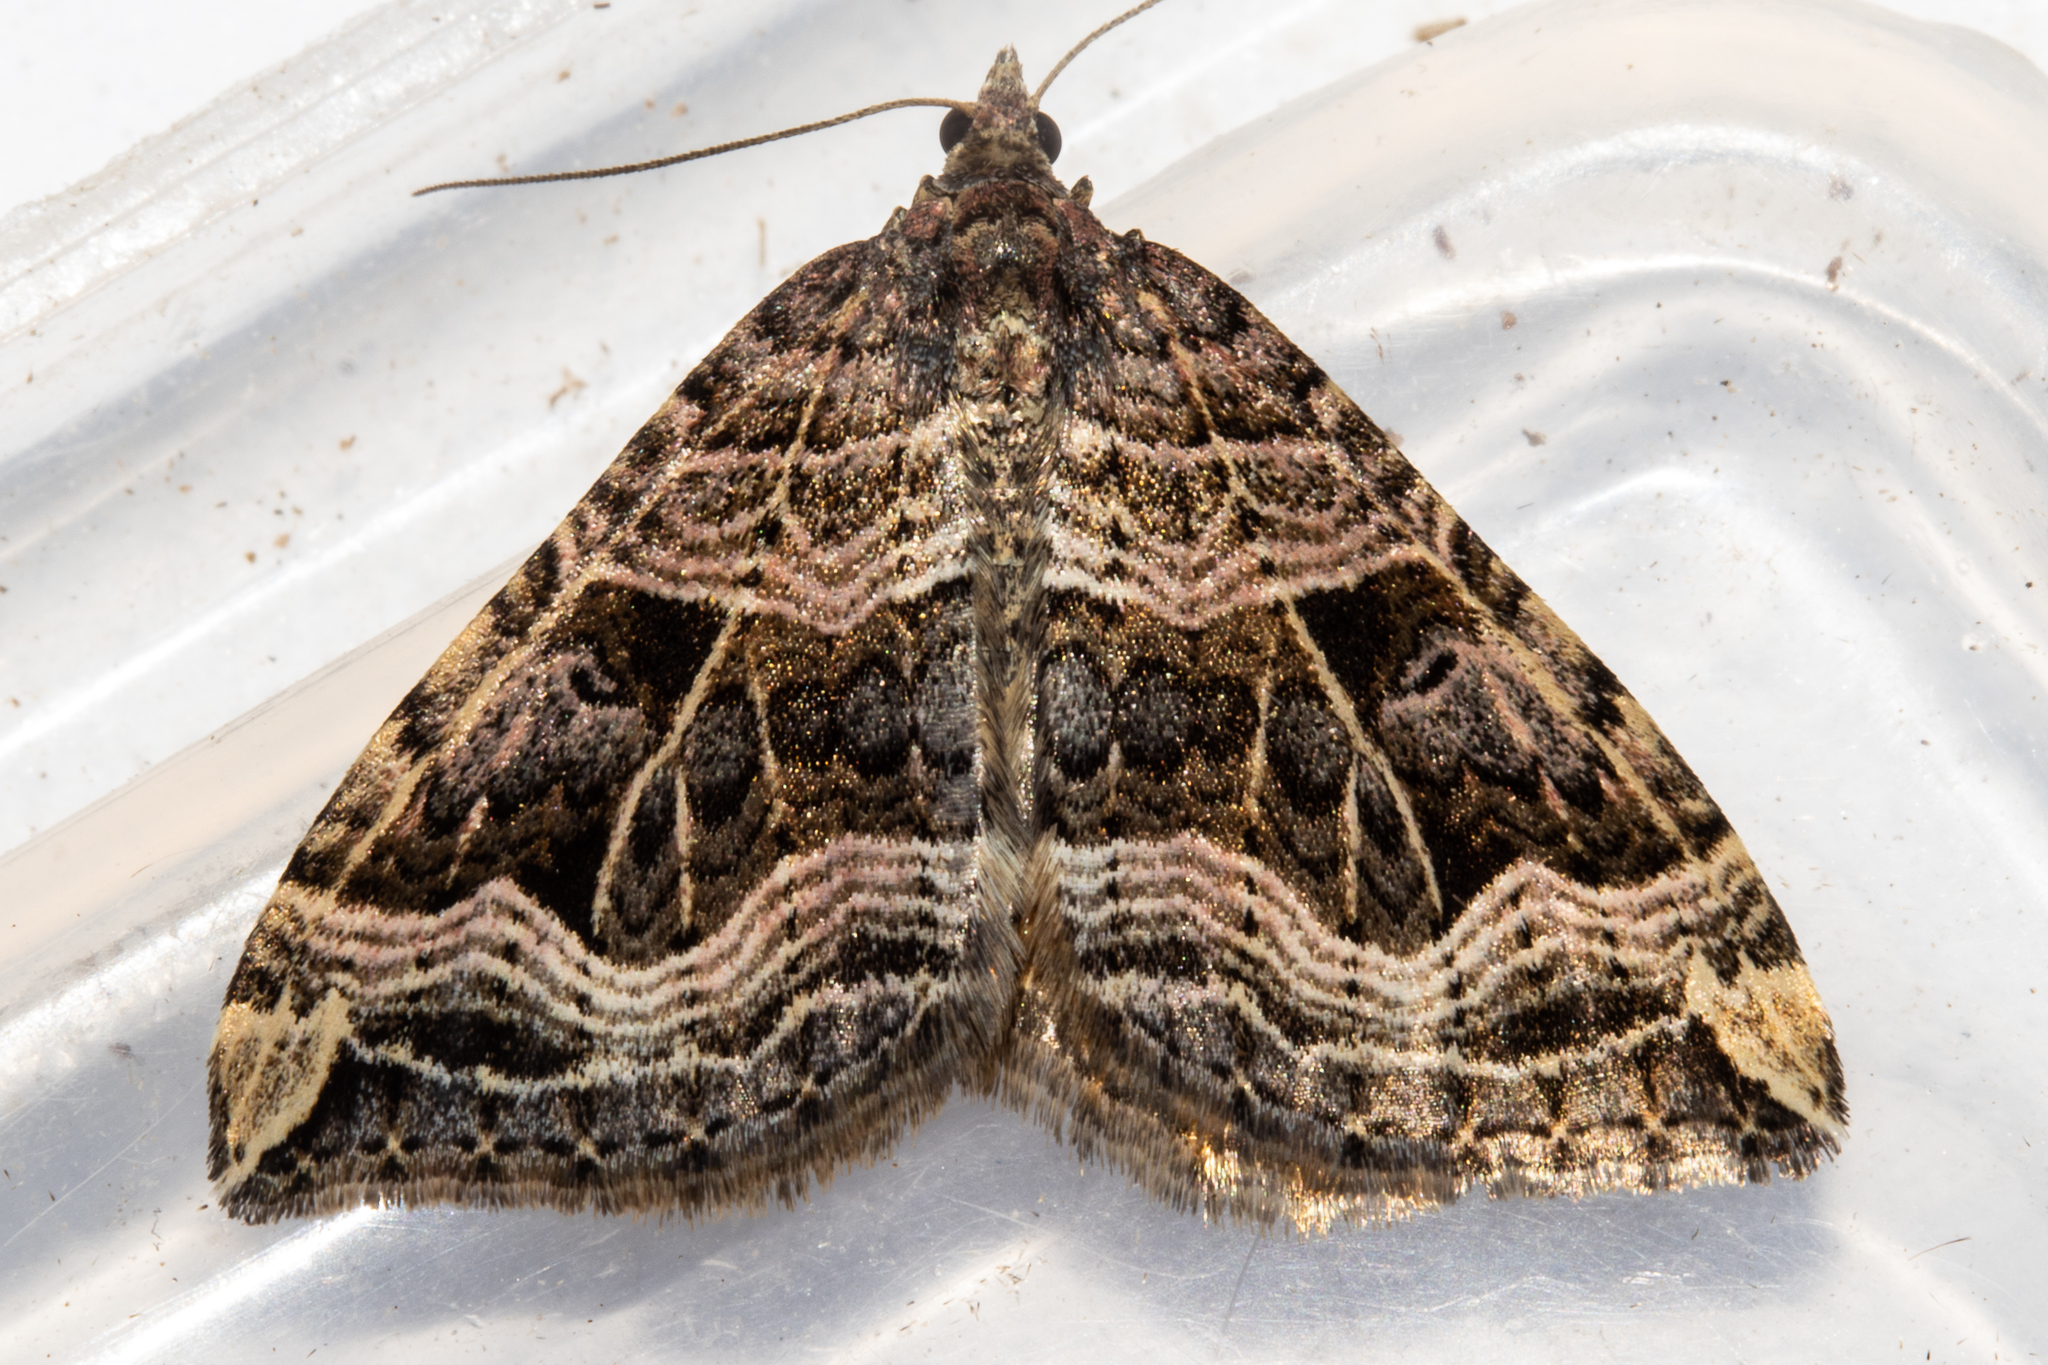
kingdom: Animalia
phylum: Arthropoda
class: Insecta
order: Lepidoptera
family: Geometridae
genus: Xanthorhoe
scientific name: Xanthorhoe semifissata
